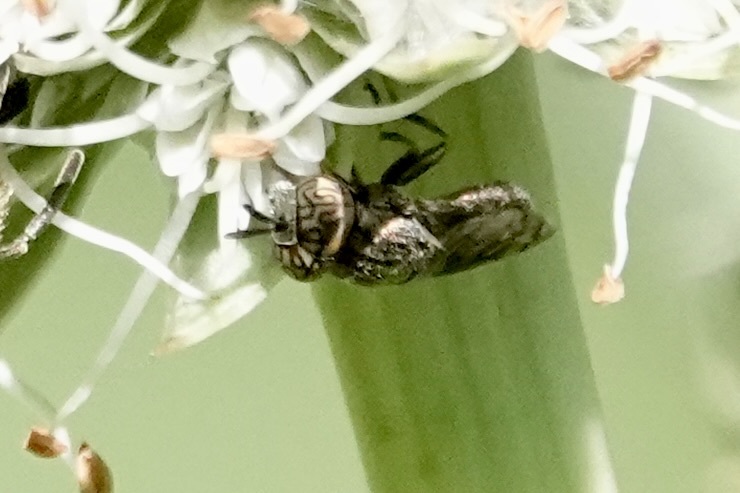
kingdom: Animalia
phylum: Arthropoda
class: Insecta
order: Diptera
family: Syrphidae
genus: Orthonevra
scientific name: Orthonevra nitida
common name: Wavy mucksucker
